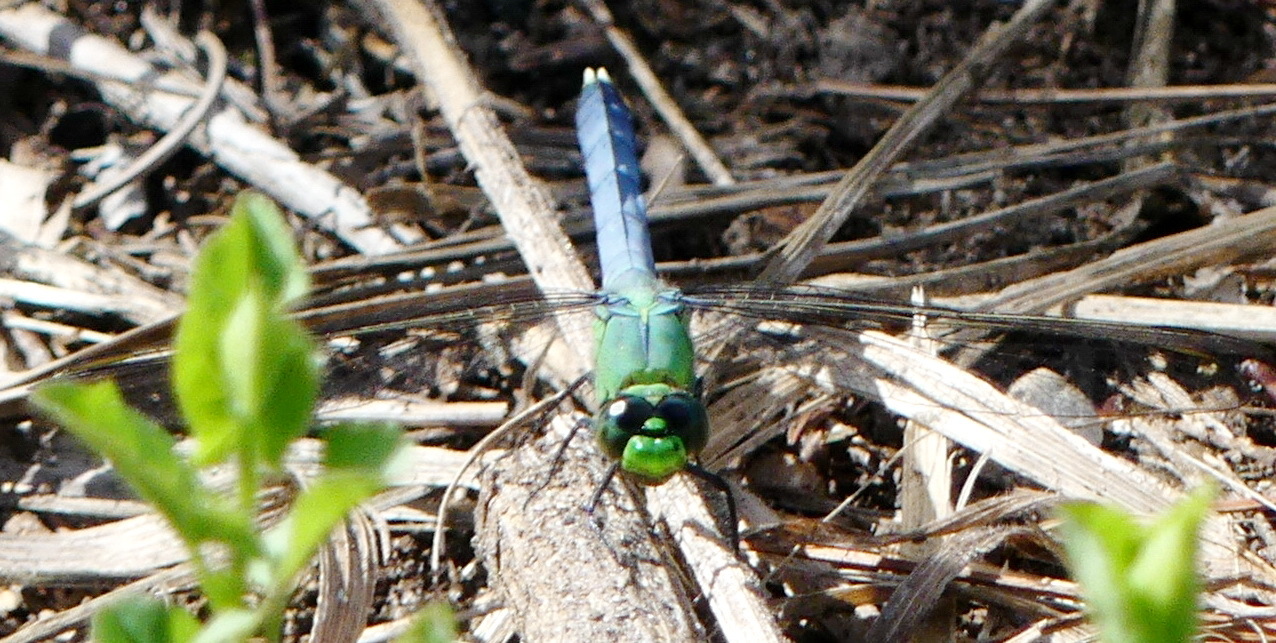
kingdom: Animalia
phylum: Arthropoda
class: Insecta
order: Odonata
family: Libellulidae
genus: Erythemis
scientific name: Erythemis simplicicollis
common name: Eastern pondhawk
